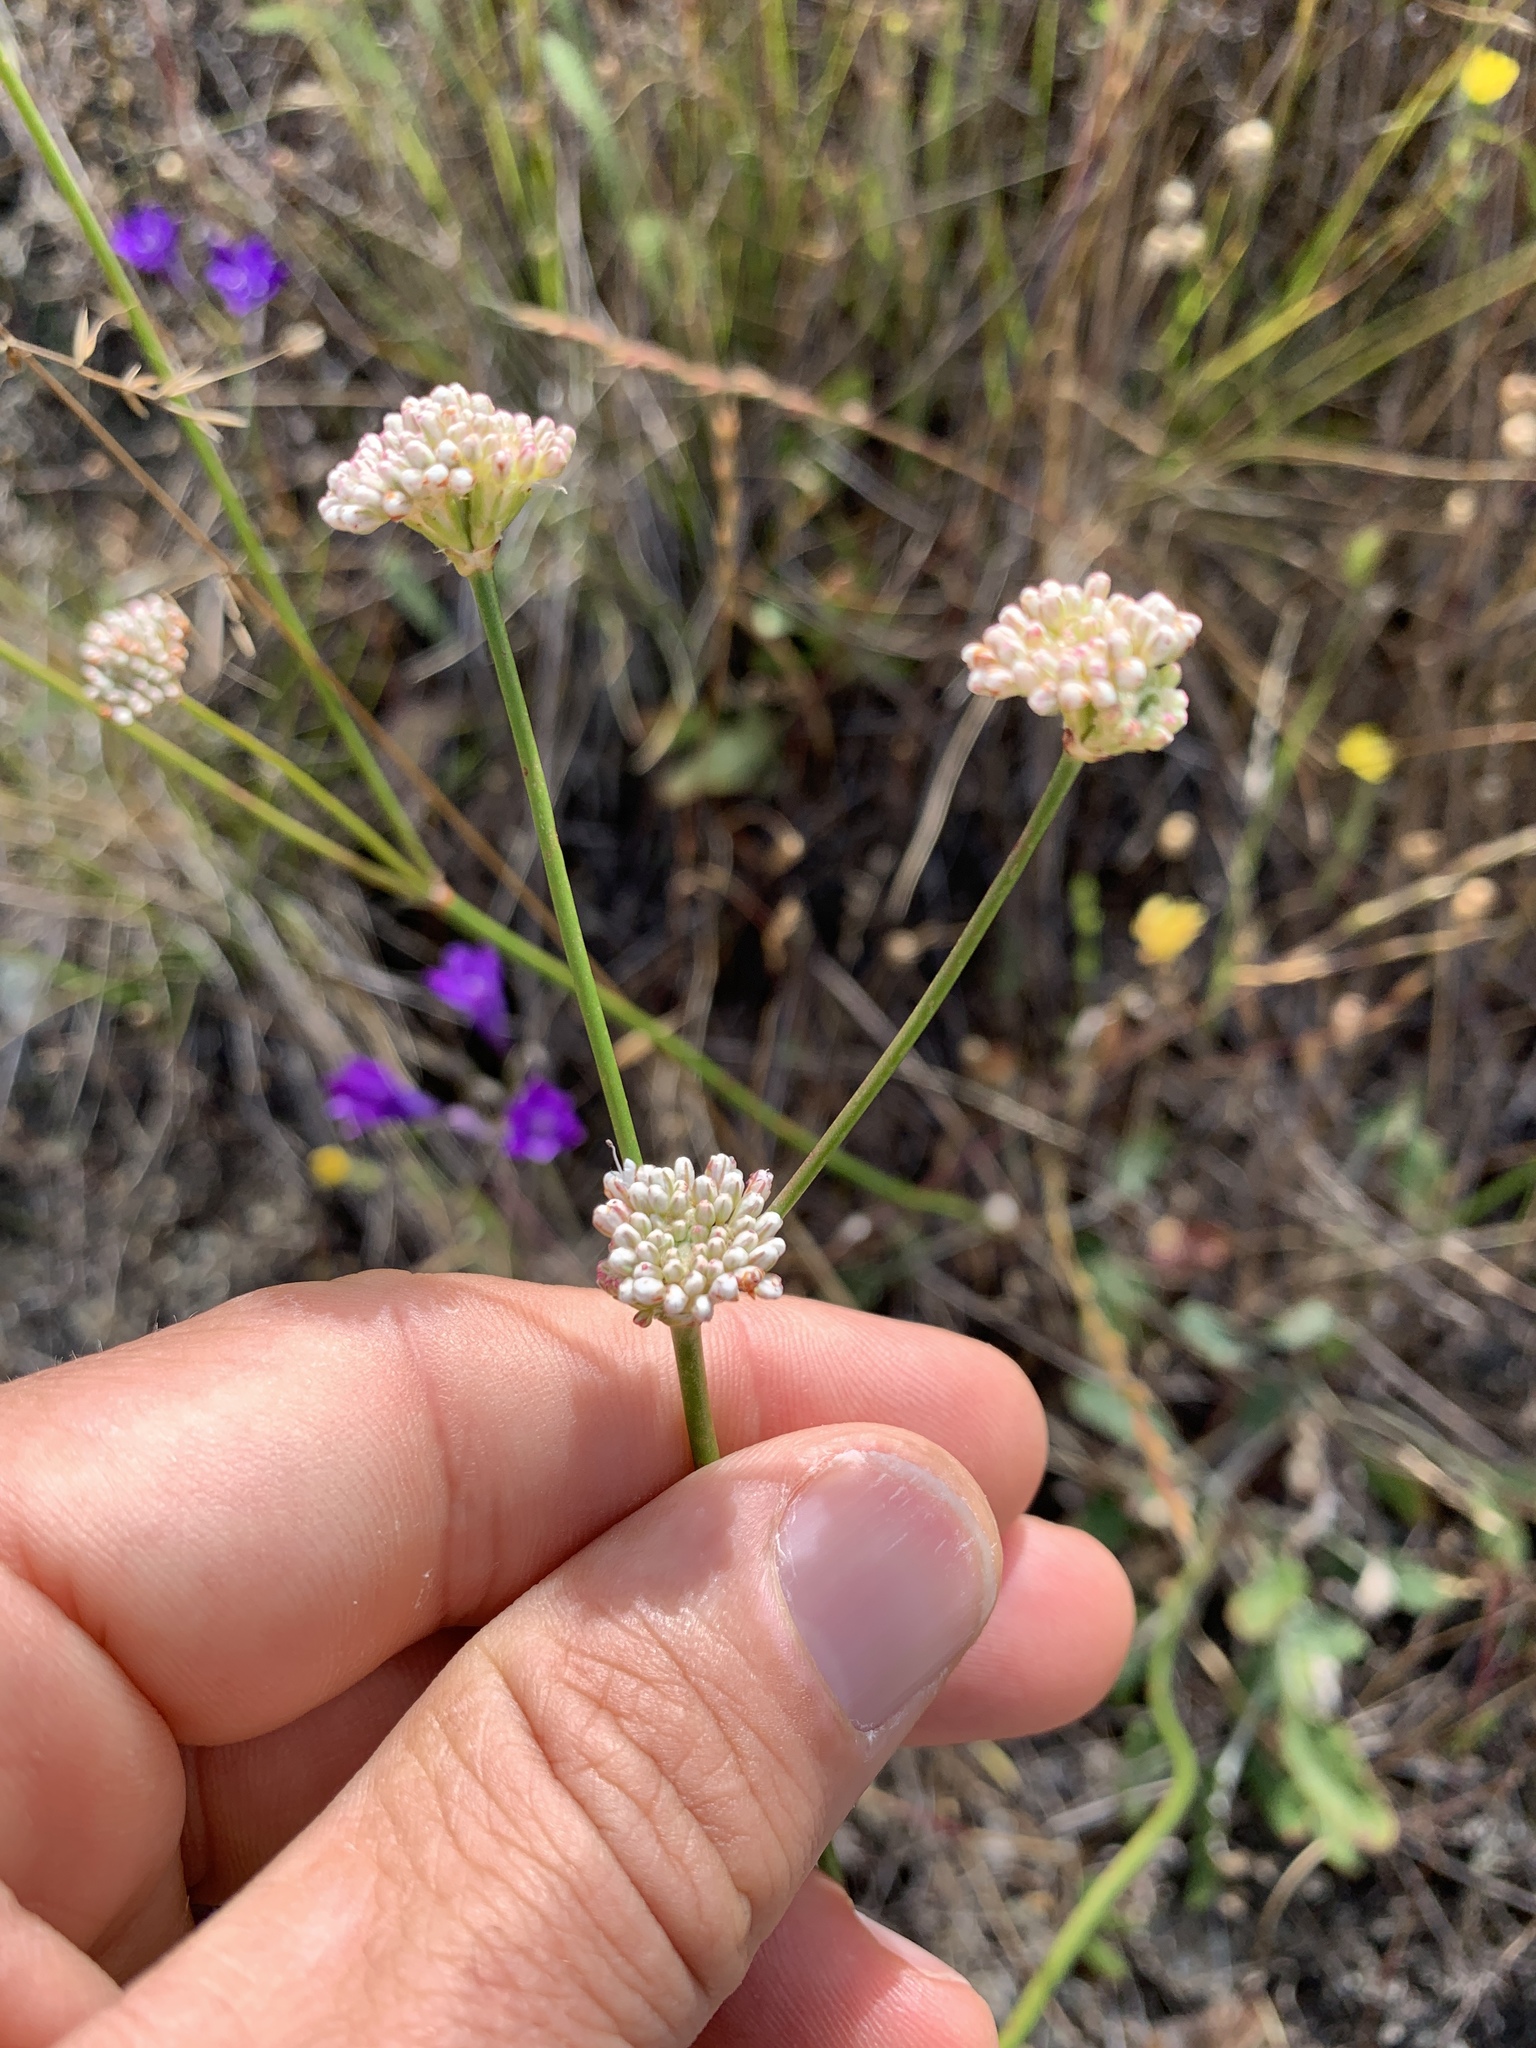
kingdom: Plantae
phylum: Tracheophyta
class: Magnoliopsida
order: Caryophyllales
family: Polygonaceae
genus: Eriogonum
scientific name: Eriogonum nudum
